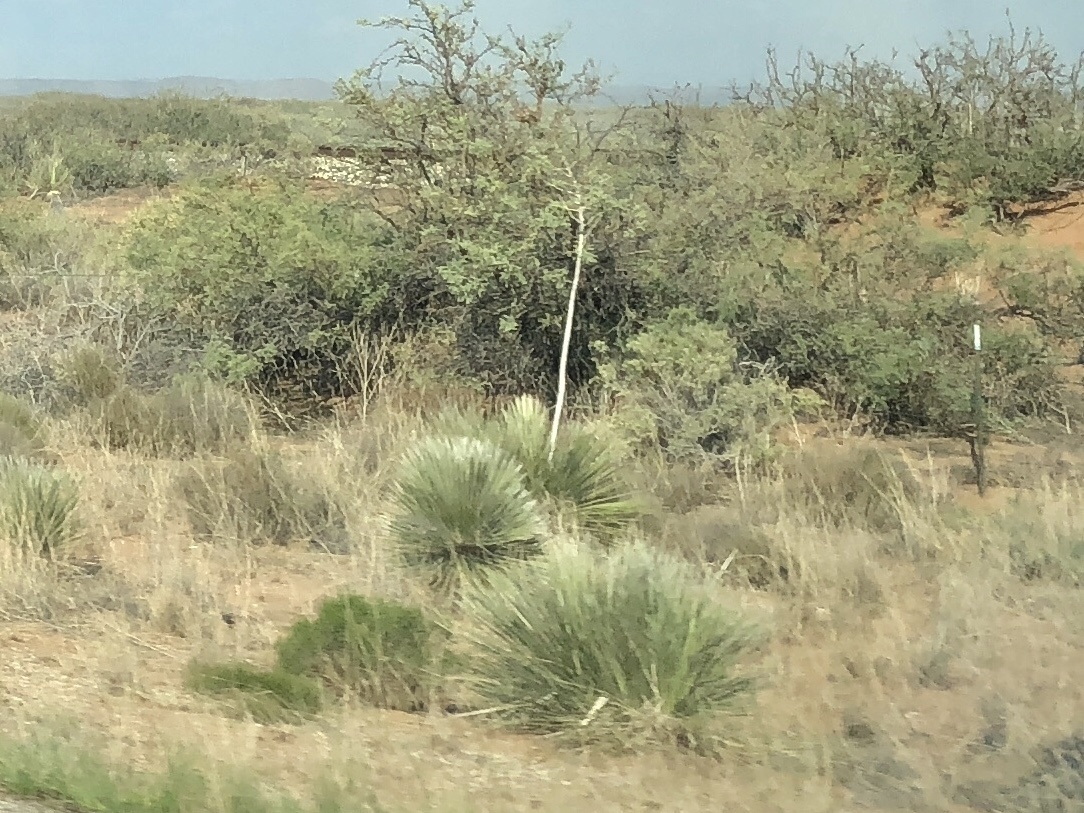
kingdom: Plantae
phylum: Tracheophyta
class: Liliopsida
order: Asparagales
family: Asparagaceae
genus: Yucca
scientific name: Yucca elata
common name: Palmella
